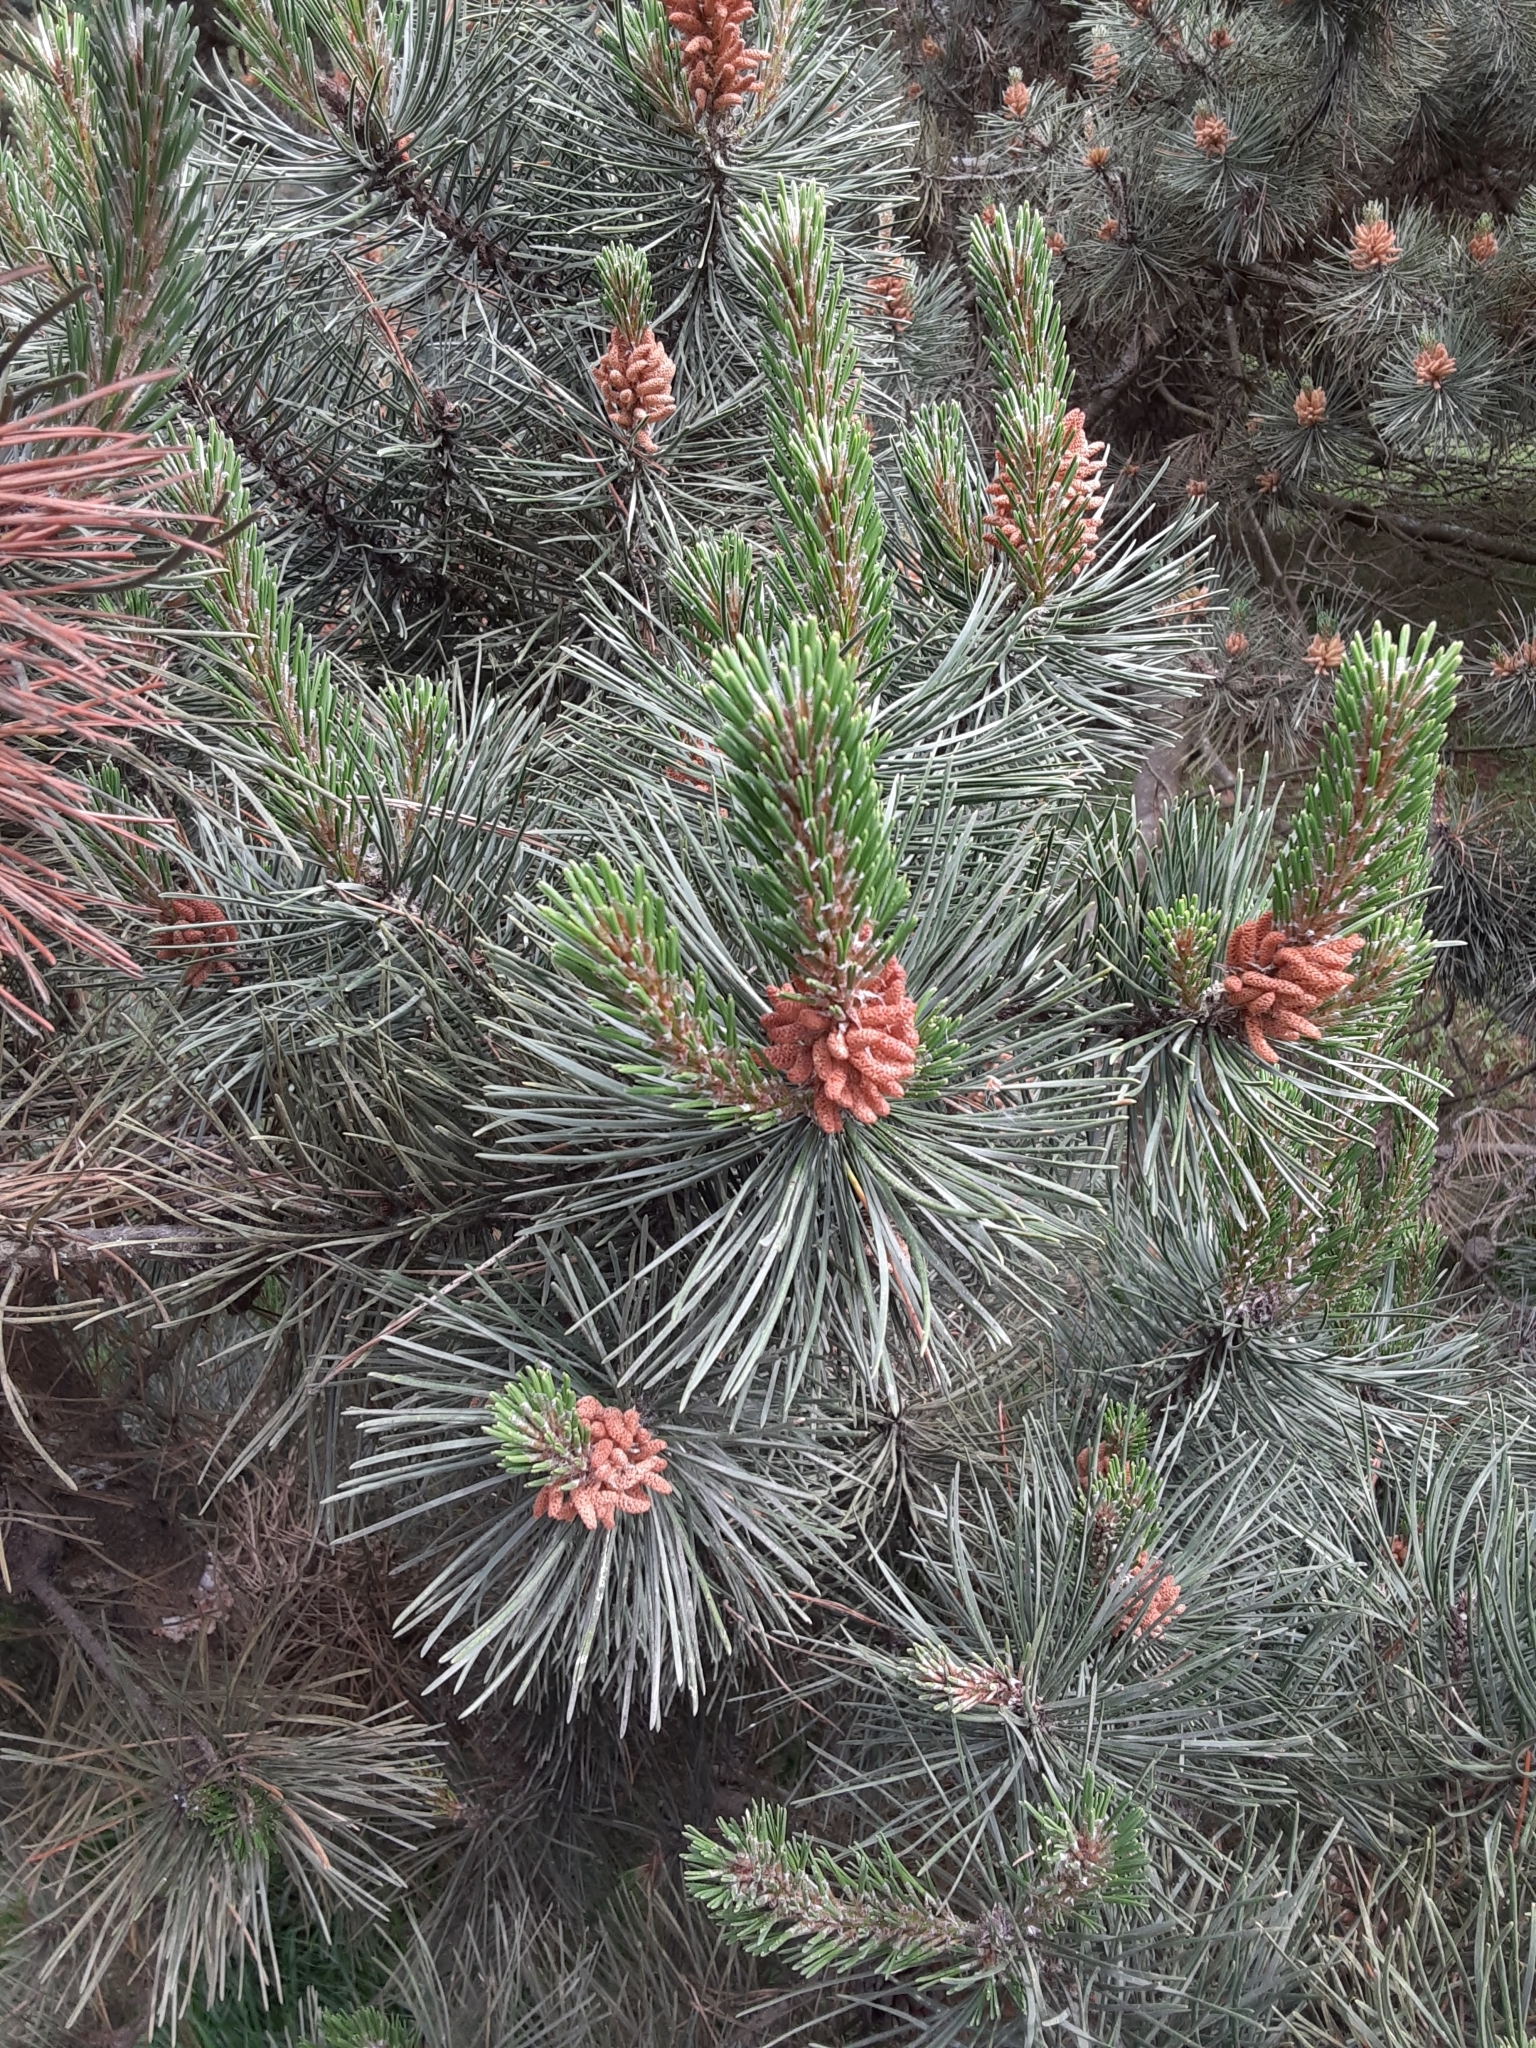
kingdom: Plantae
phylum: Tracheophyta
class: Pinopsida
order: Pinales
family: Pinaceae
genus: Pinus
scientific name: Pinus contorta
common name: Lodgepole pine
